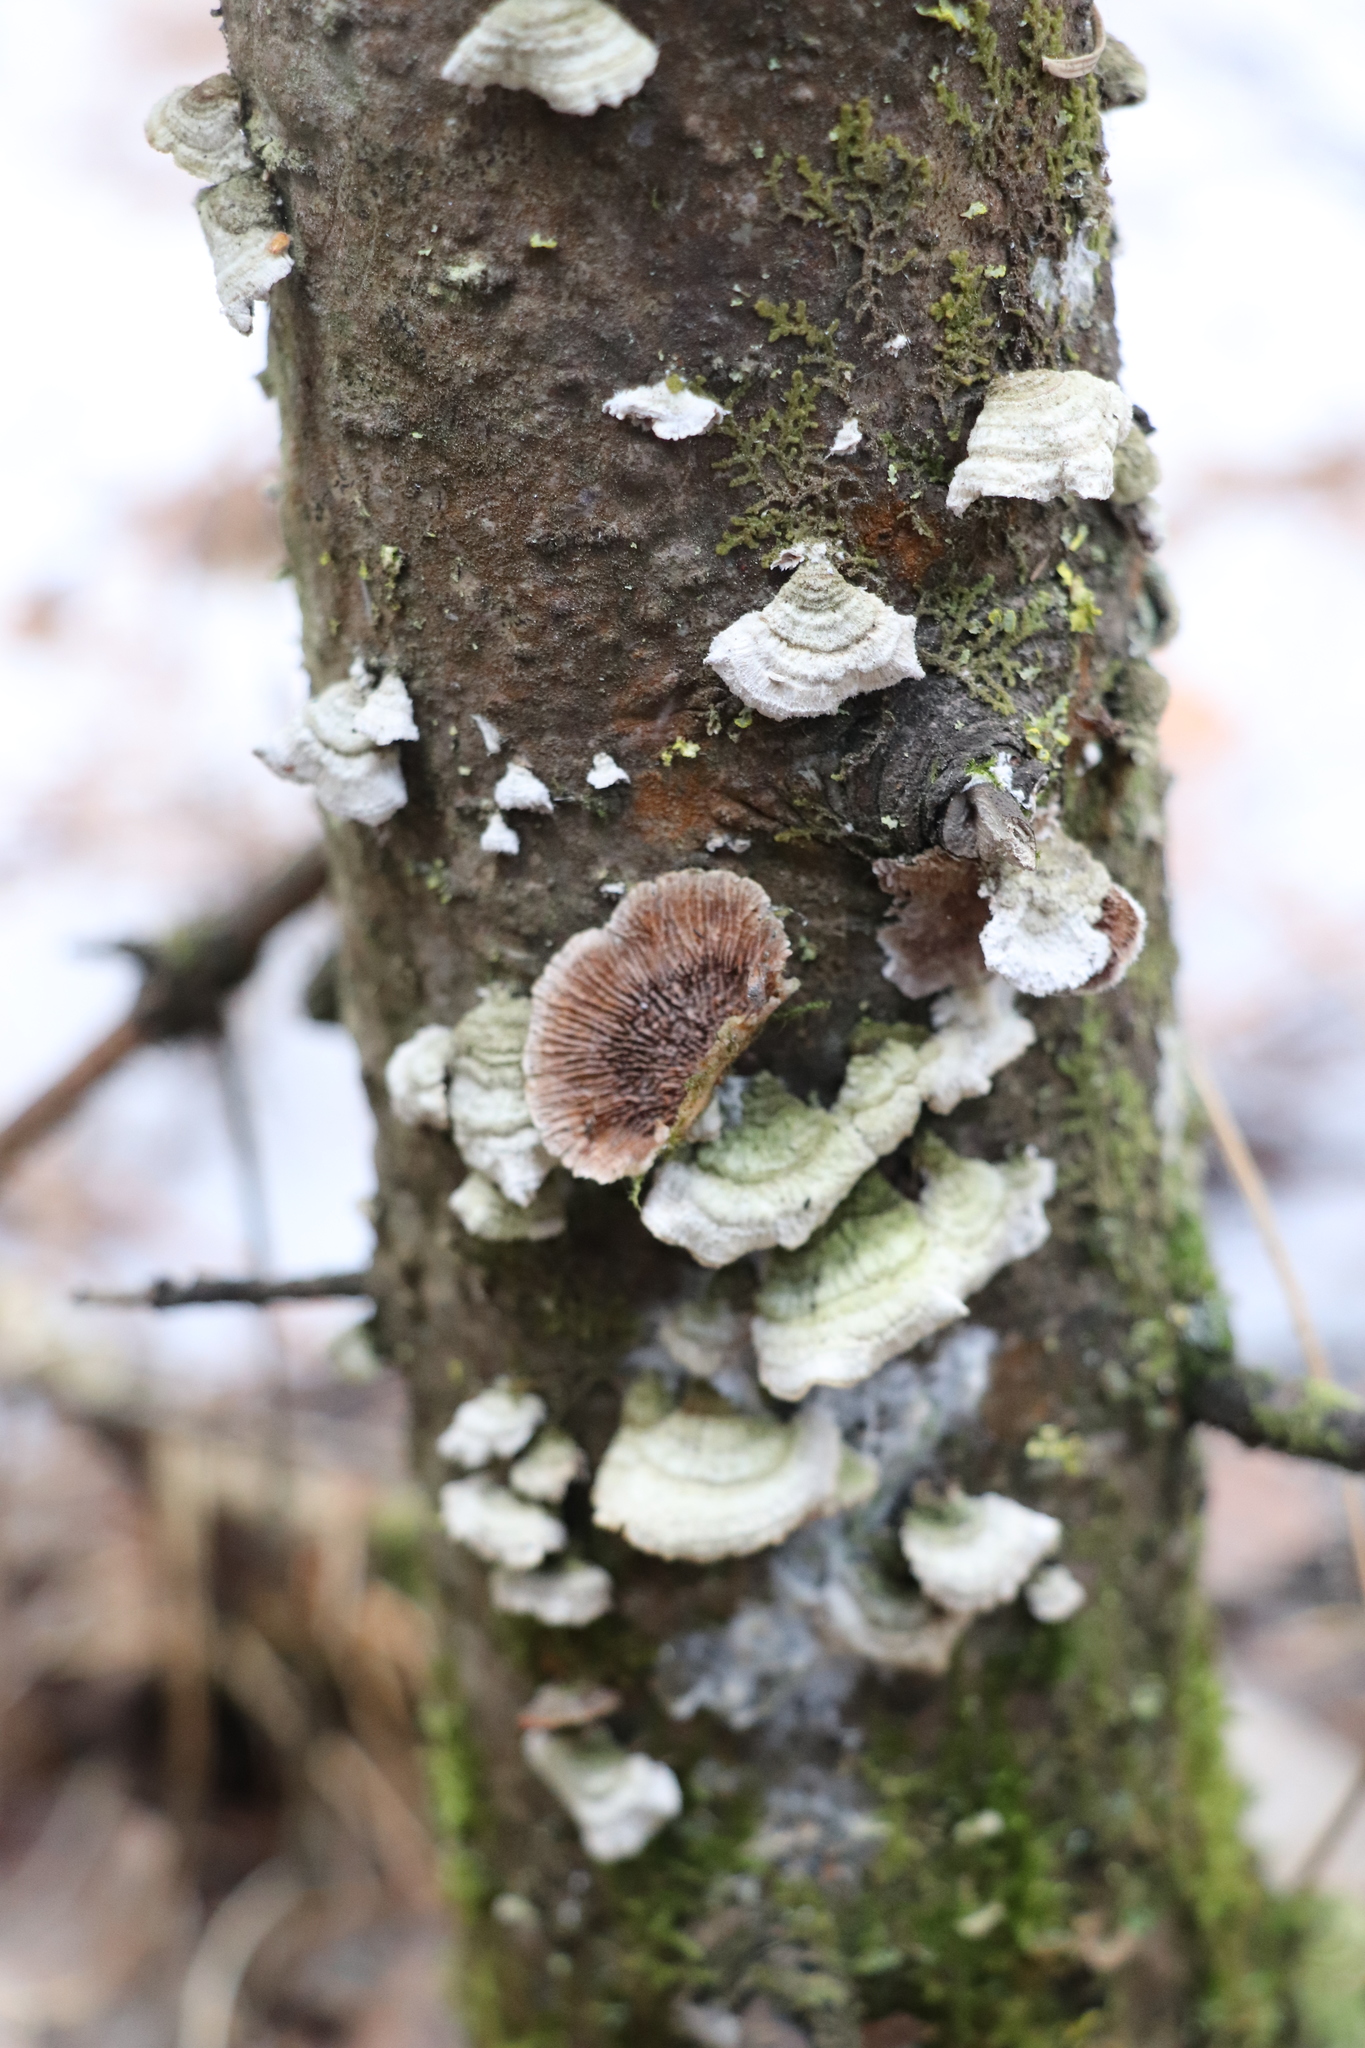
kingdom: Fungi
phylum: Basidiomycota
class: Agaricomycetes
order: Hymenochaetales
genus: Trichaptum
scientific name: Trichaptum fuscoviolaceum
